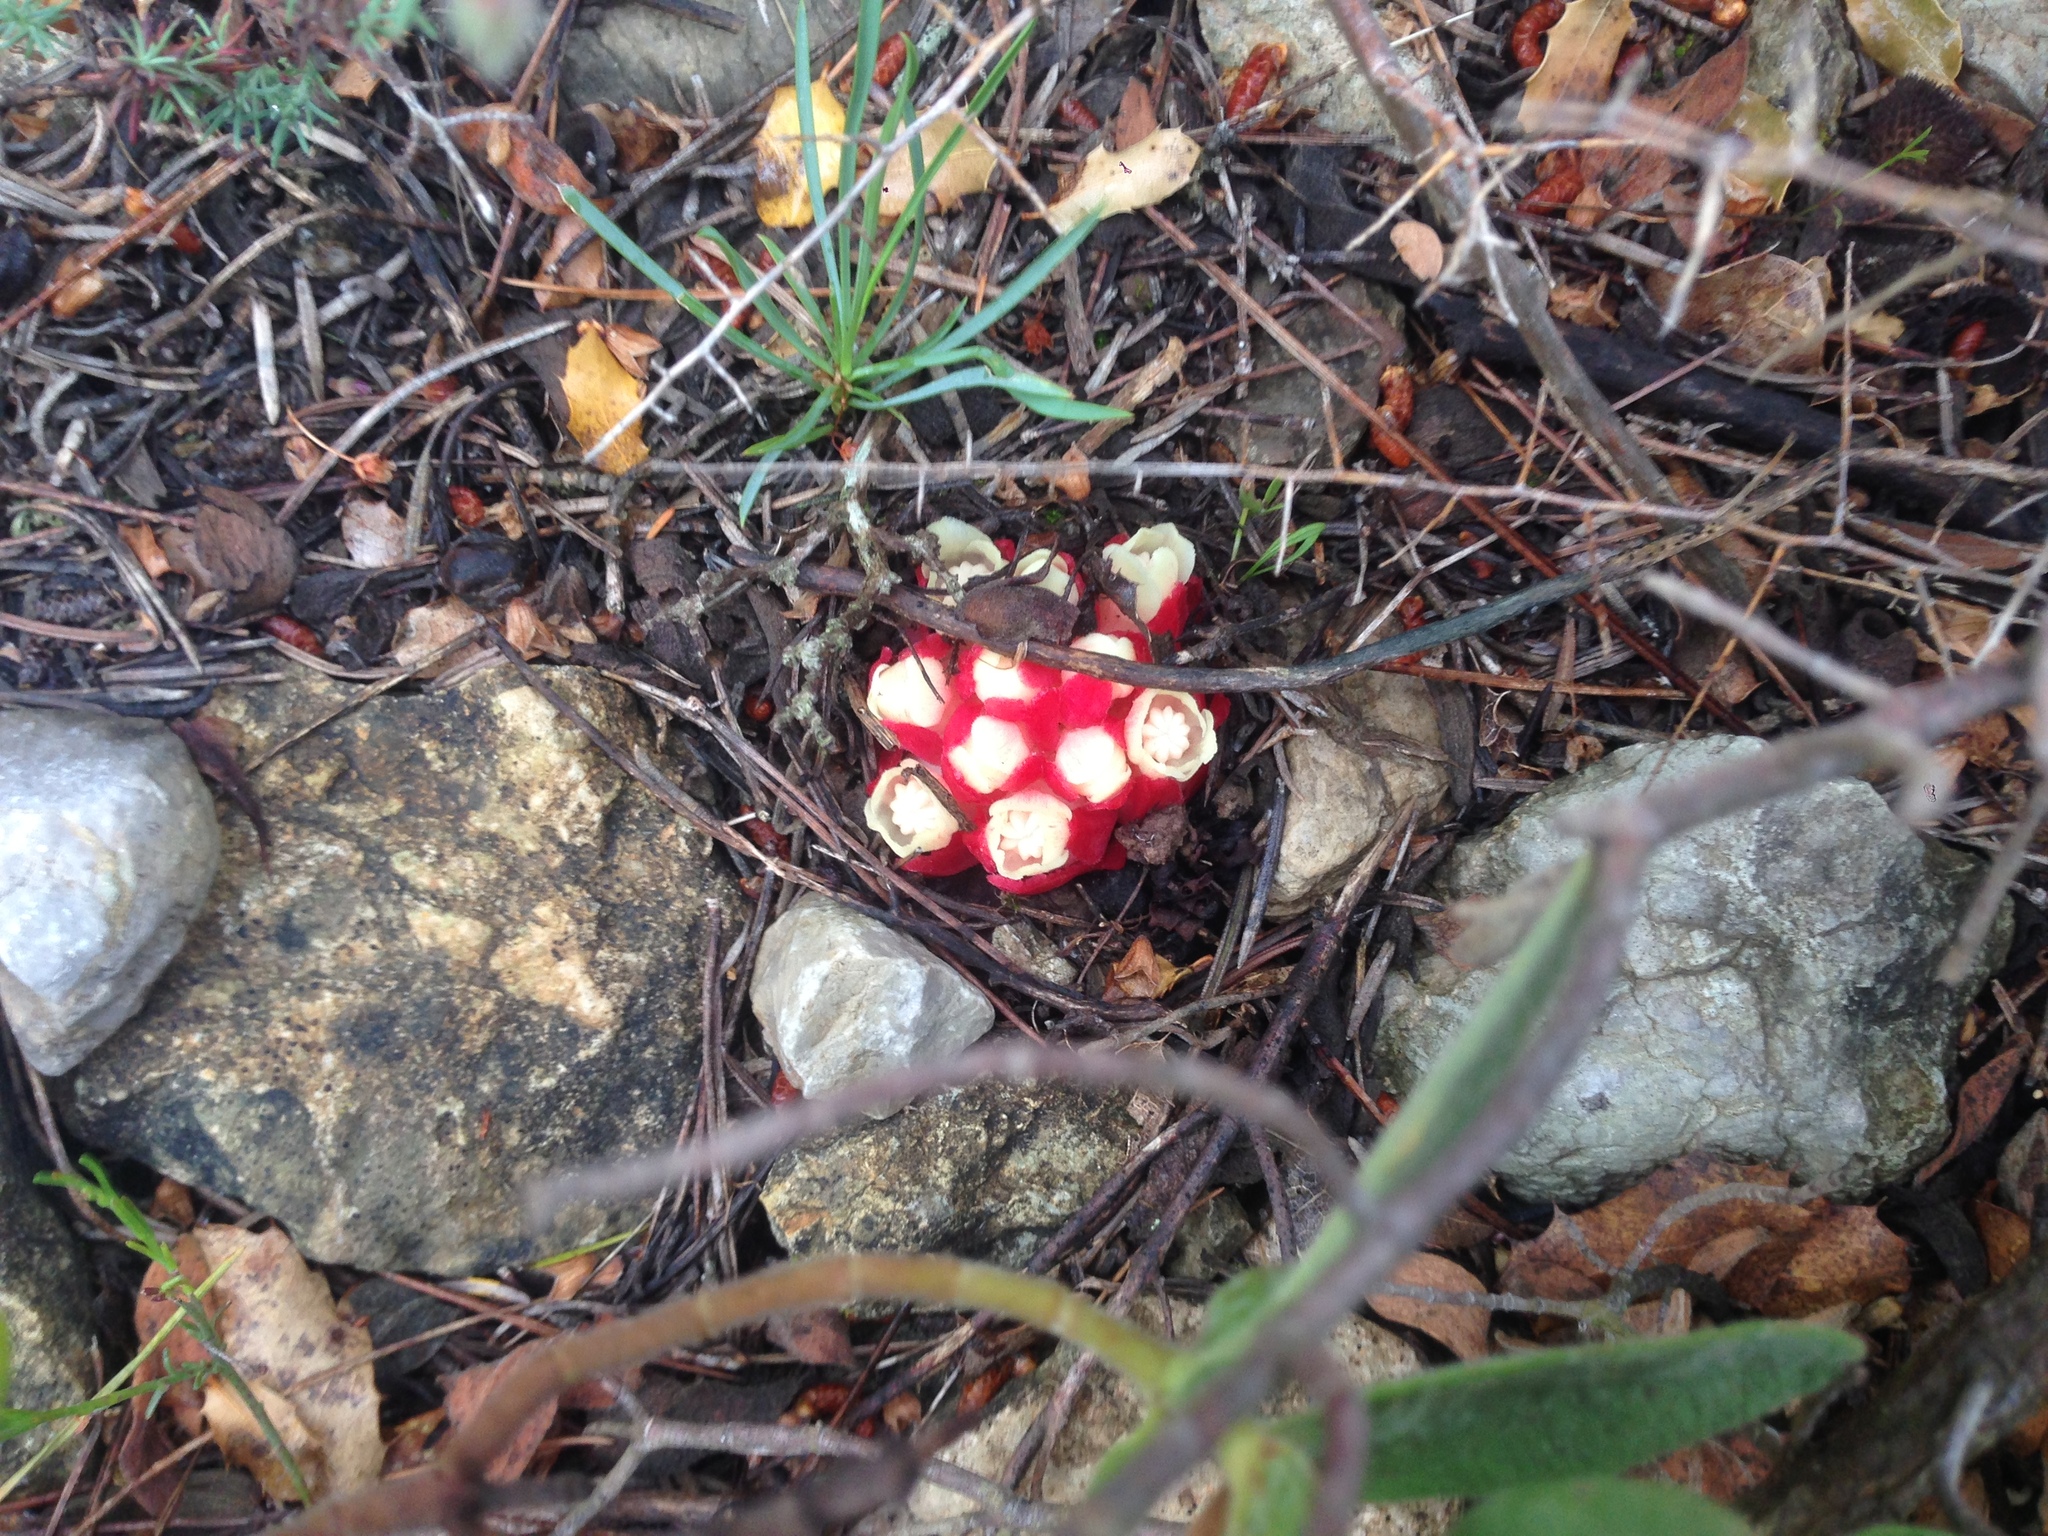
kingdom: Plantae
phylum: Tracheophyta
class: Magnoliopsida
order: Malvales
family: Cytinaceae
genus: Cytinus
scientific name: Cytinus ruber
